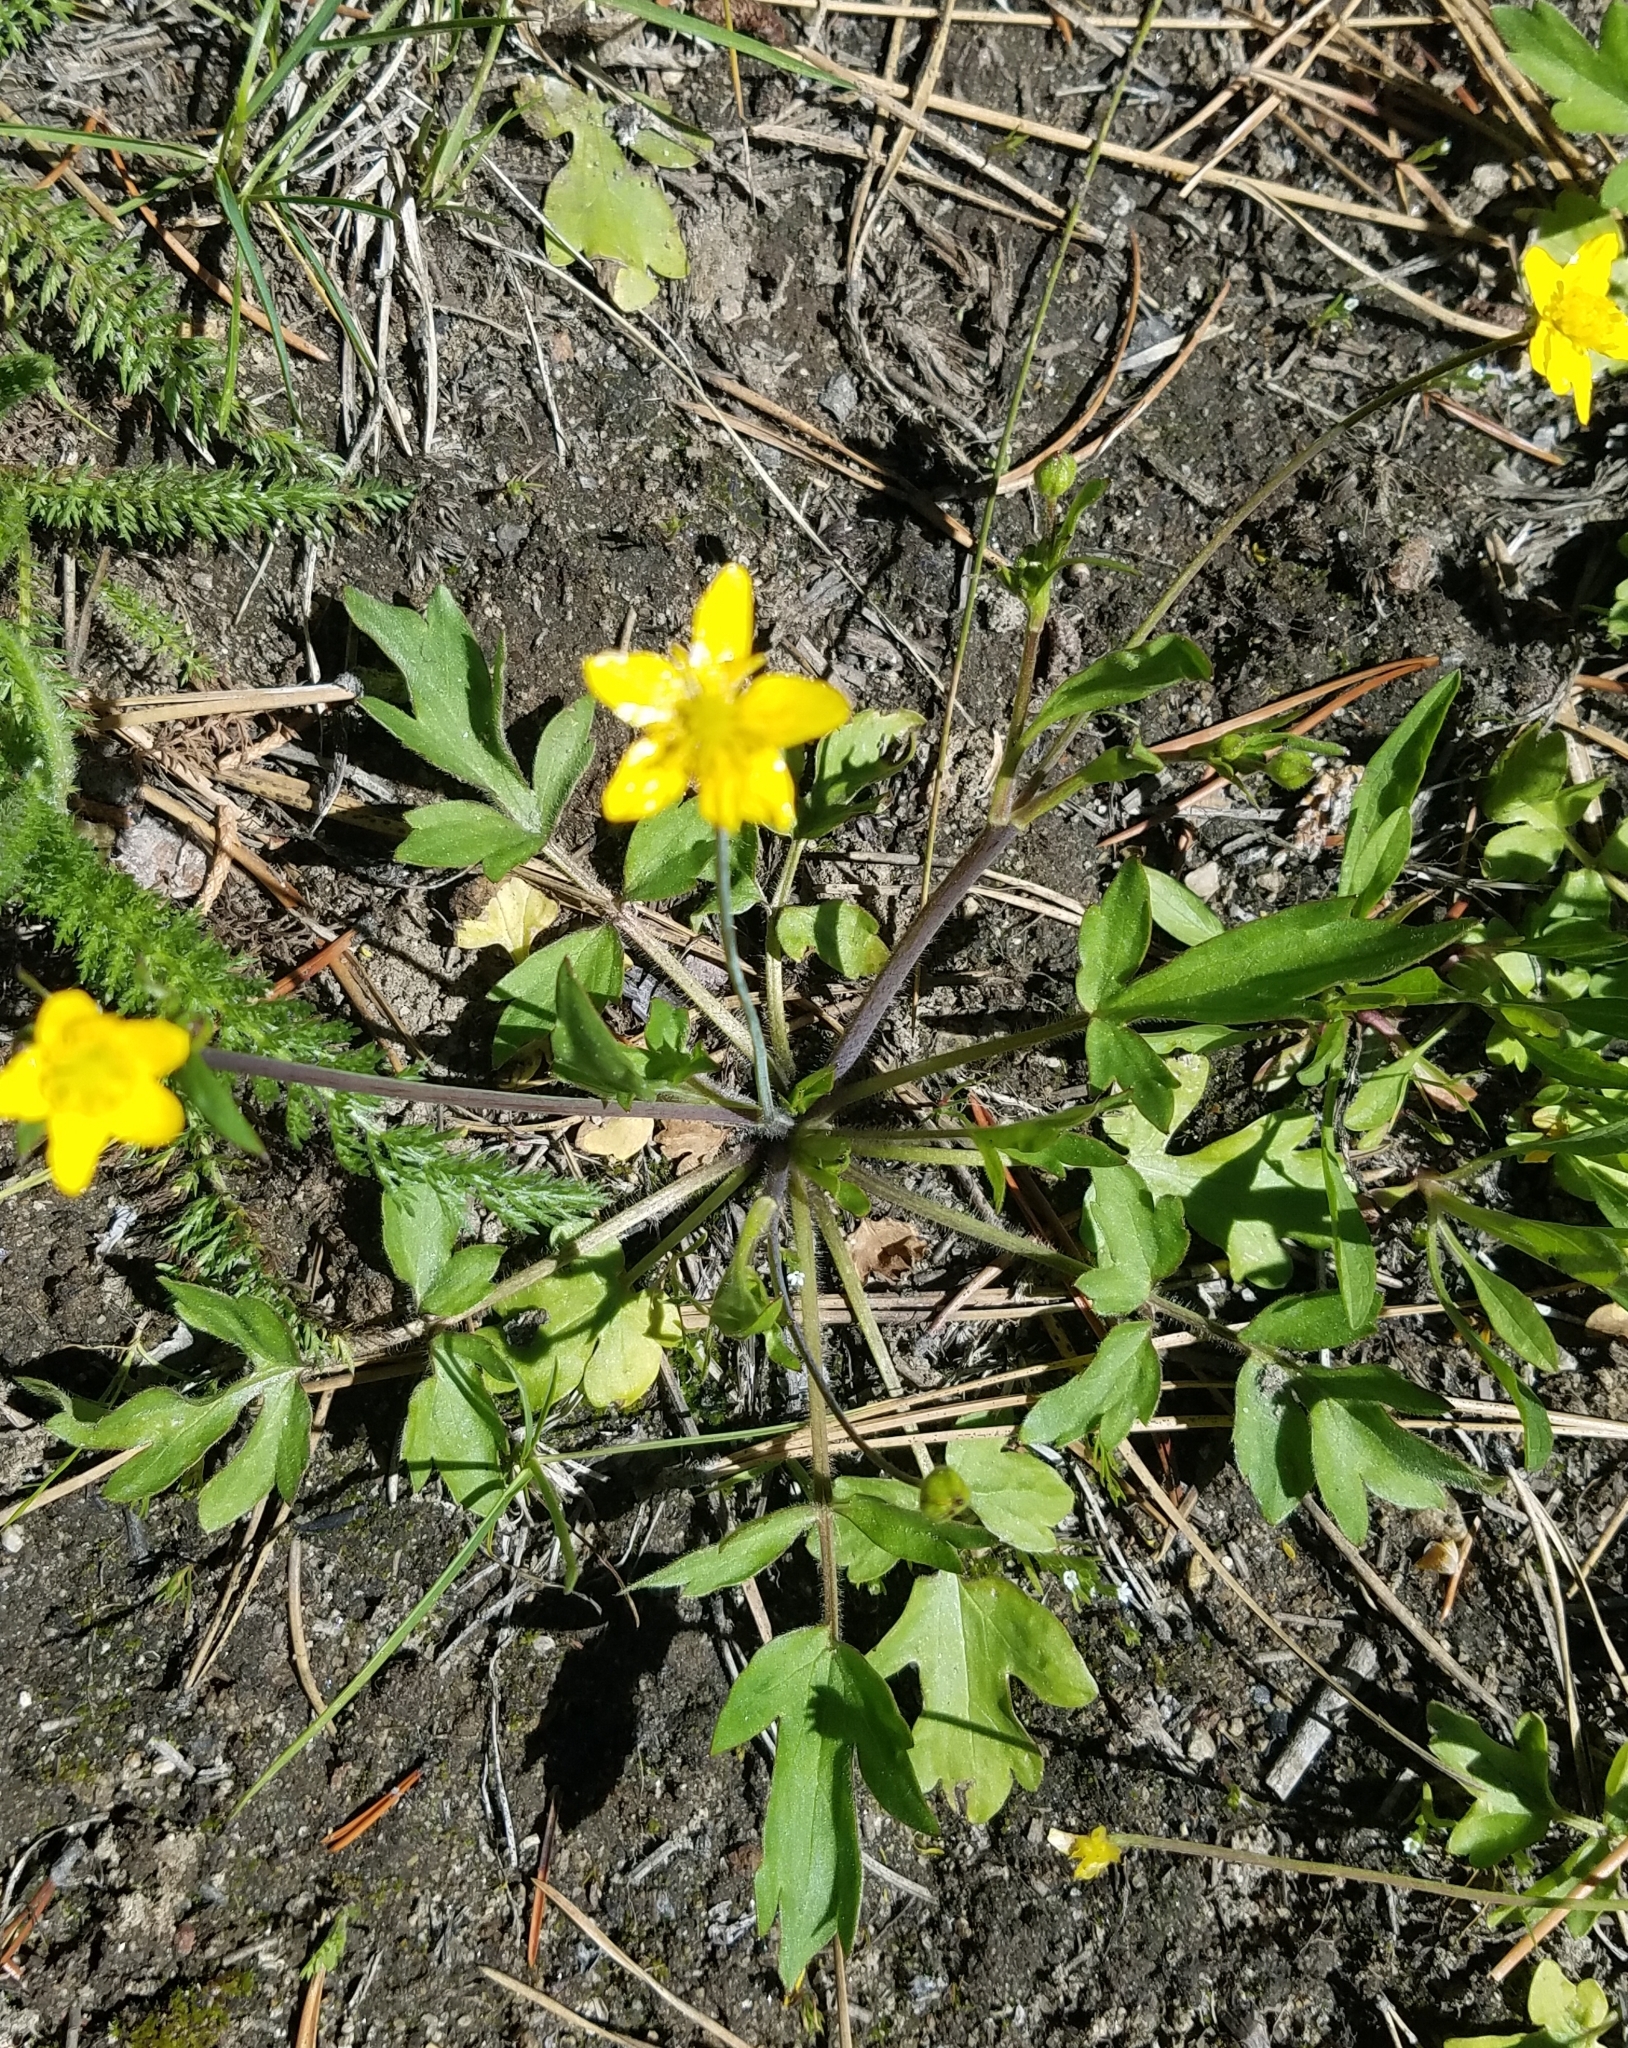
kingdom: Plantae
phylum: Tracheophyta
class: Magnoliopsida
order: Ranunculales
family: Ranunculaceae
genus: Ranunculus
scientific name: Ranunculus occidentalis
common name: Western buttercup
